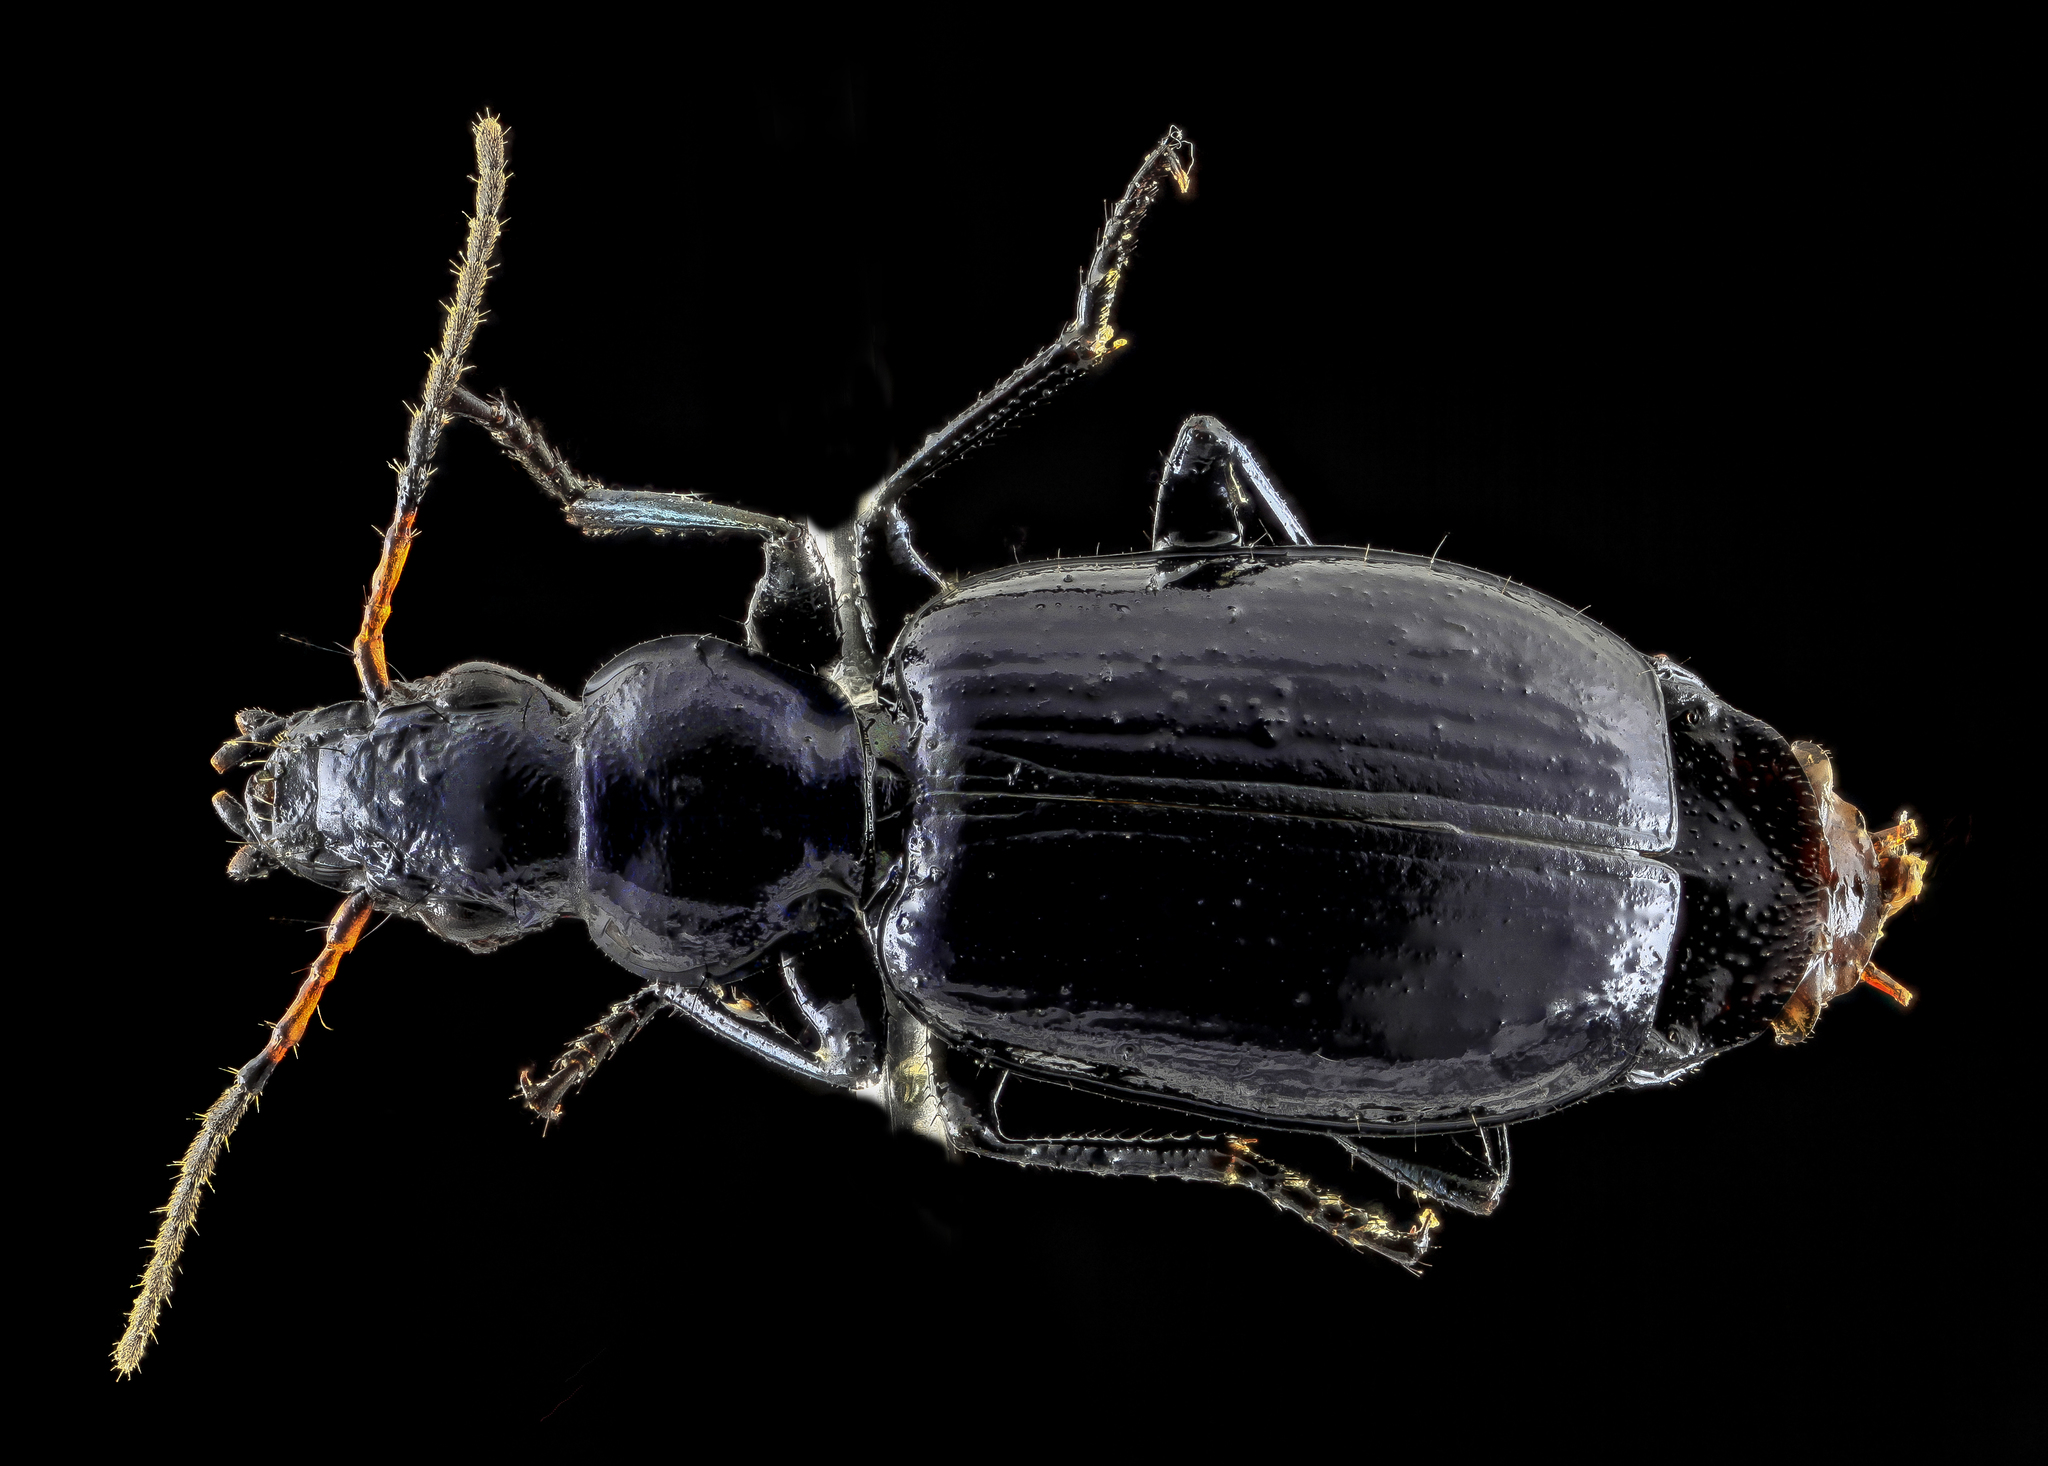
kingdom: Animalia
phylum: Arthropoda
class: Insecta
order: Coleoptera
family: Carabidae
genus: Philophuga
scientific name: Philophuga viridis
